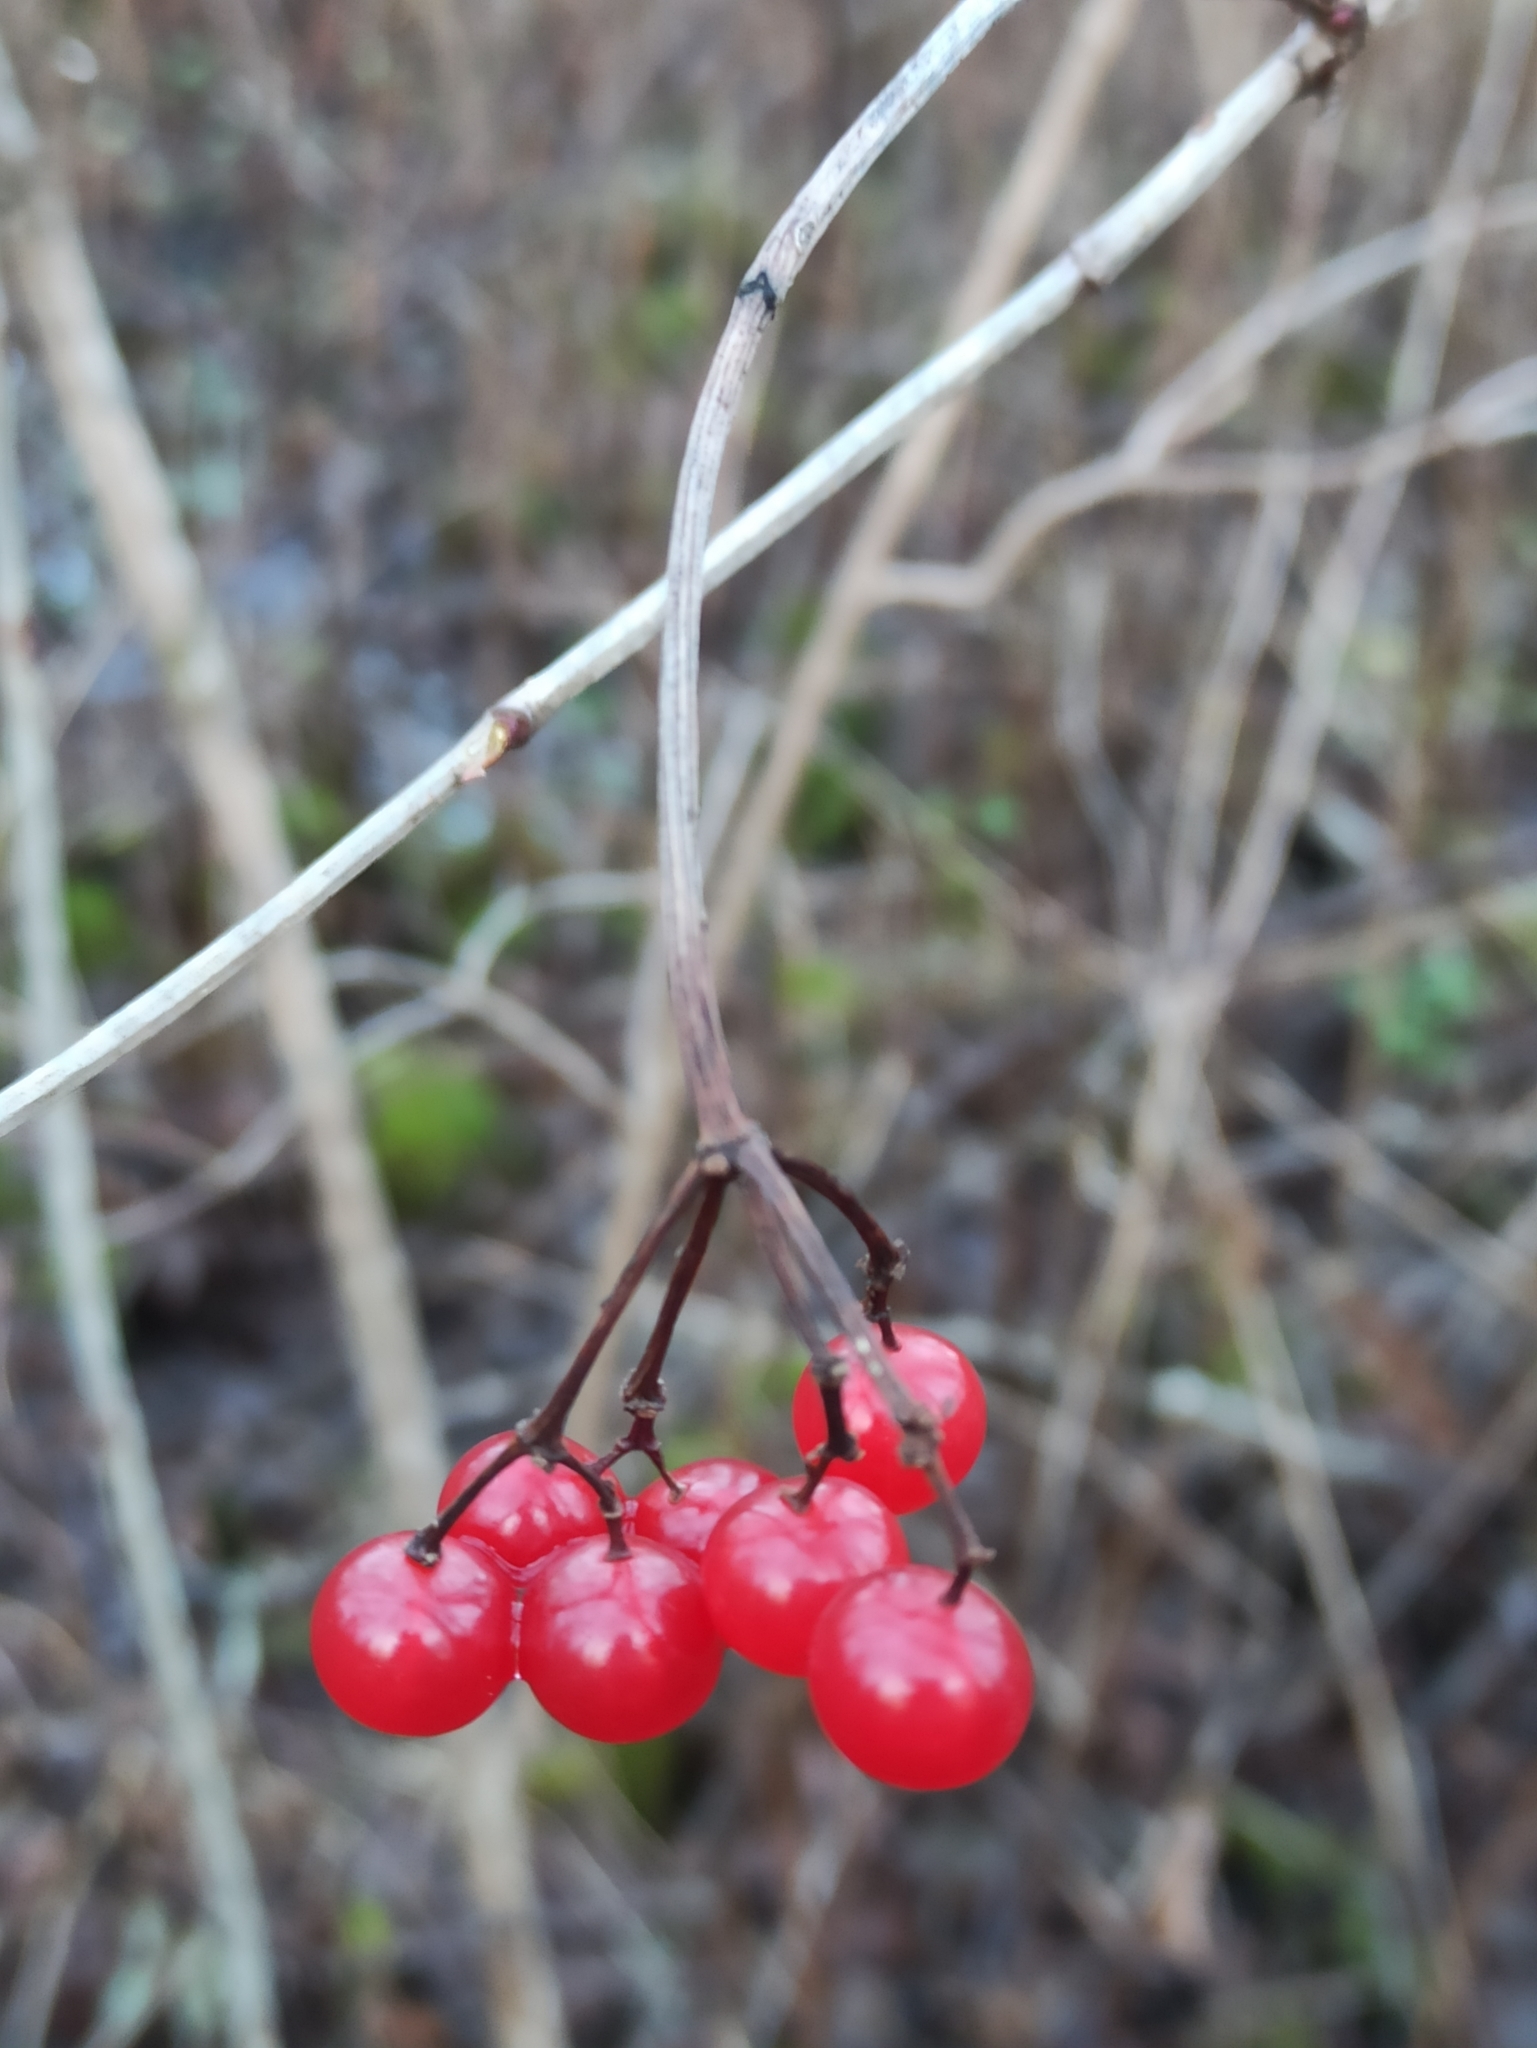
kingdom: Plantae
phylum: Tracheophyta
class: Magnoliopsida
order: Dipsacales
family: Viburnaceae
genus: Viburnum
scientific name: Viburnum opulus
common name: Guelder-rose
